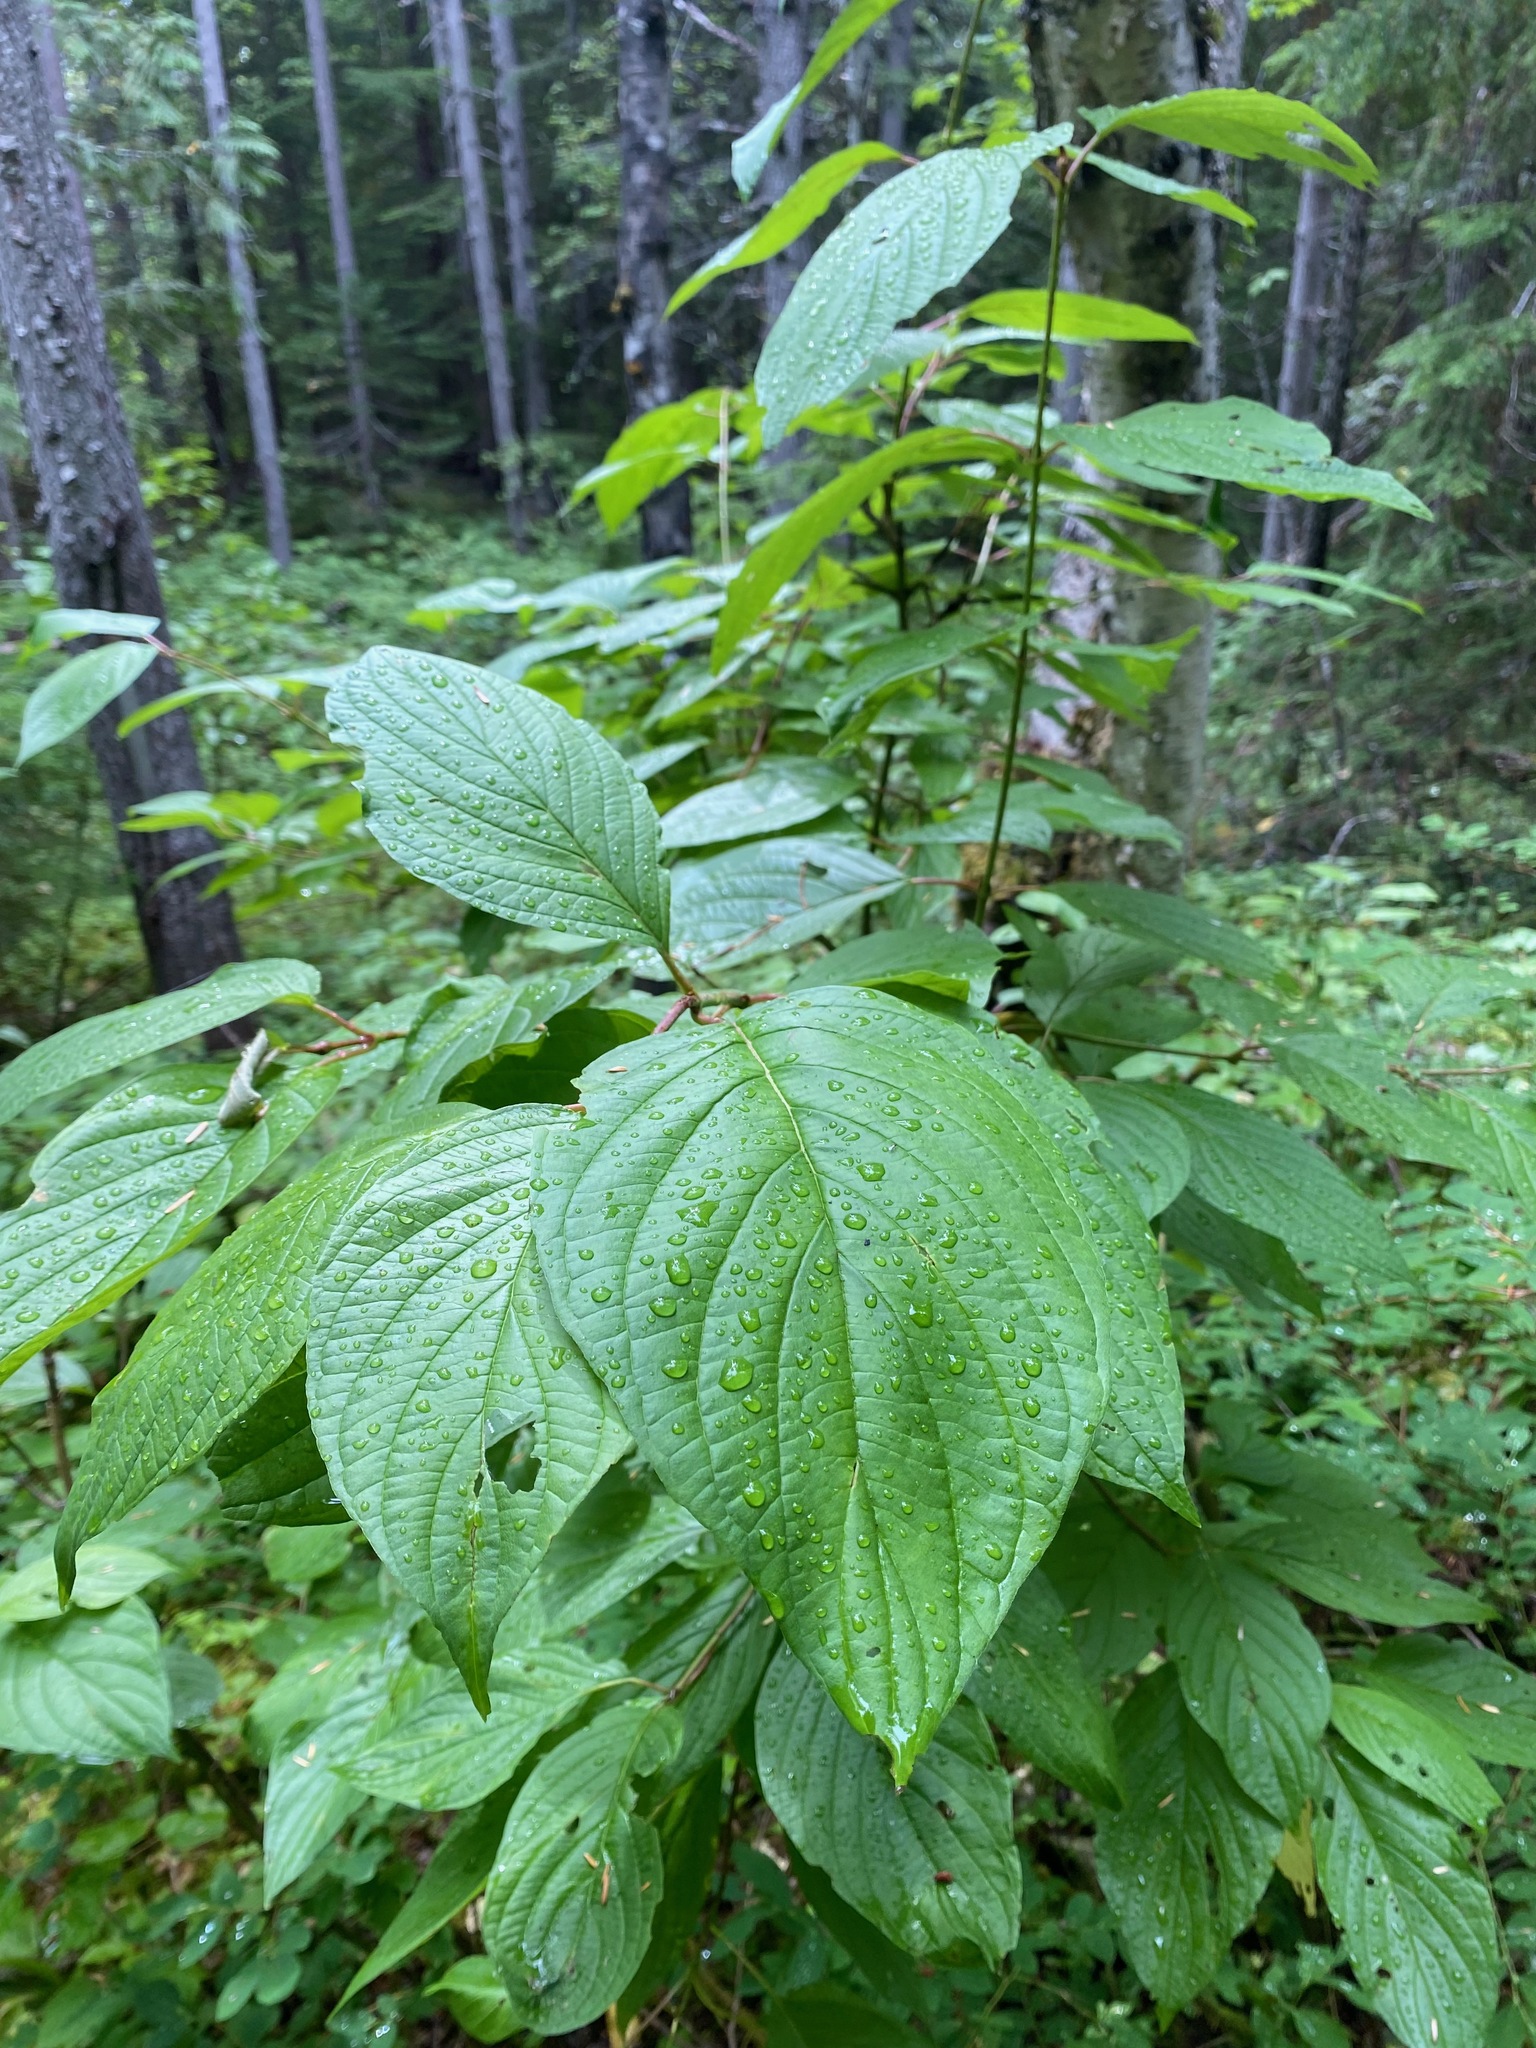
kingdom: Plantae
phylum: Tracheophyta
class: Magnoliopsida
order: Cornales
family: Cornaceae
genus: Cornus
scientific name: Cornus sericea
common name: Red-osier dogwood
